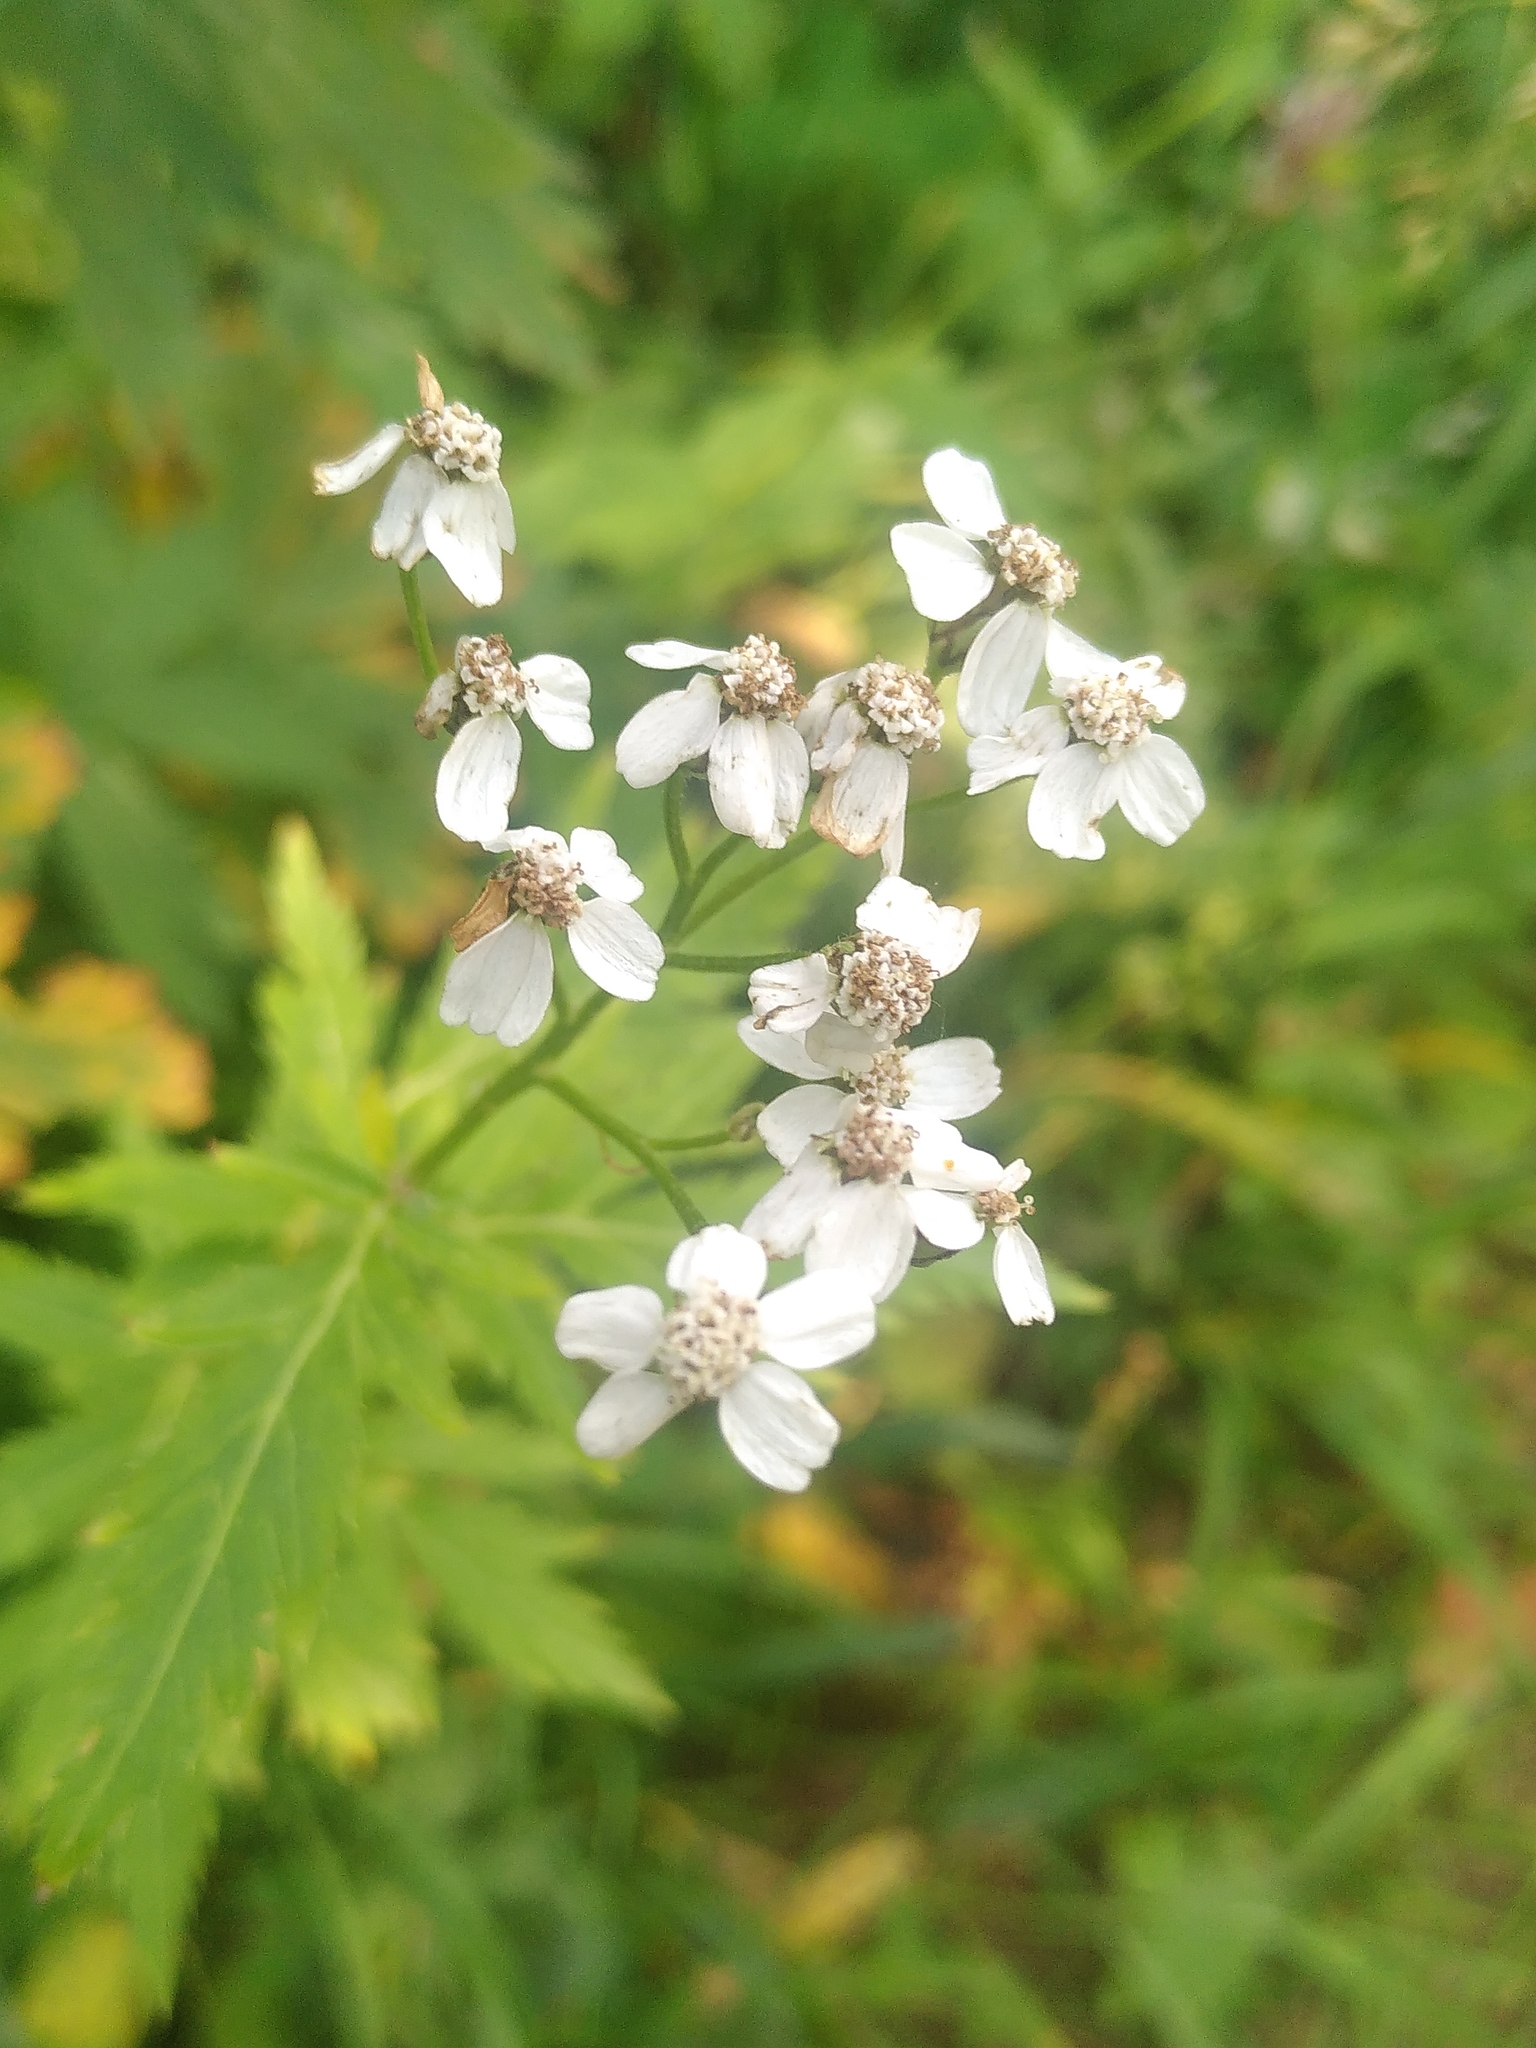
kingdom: Plantae
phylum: Tracheophyta
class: Magnoliopsida
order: Asterales
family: Asteraceae
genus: Achillea
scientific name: Achillea macrophylla
